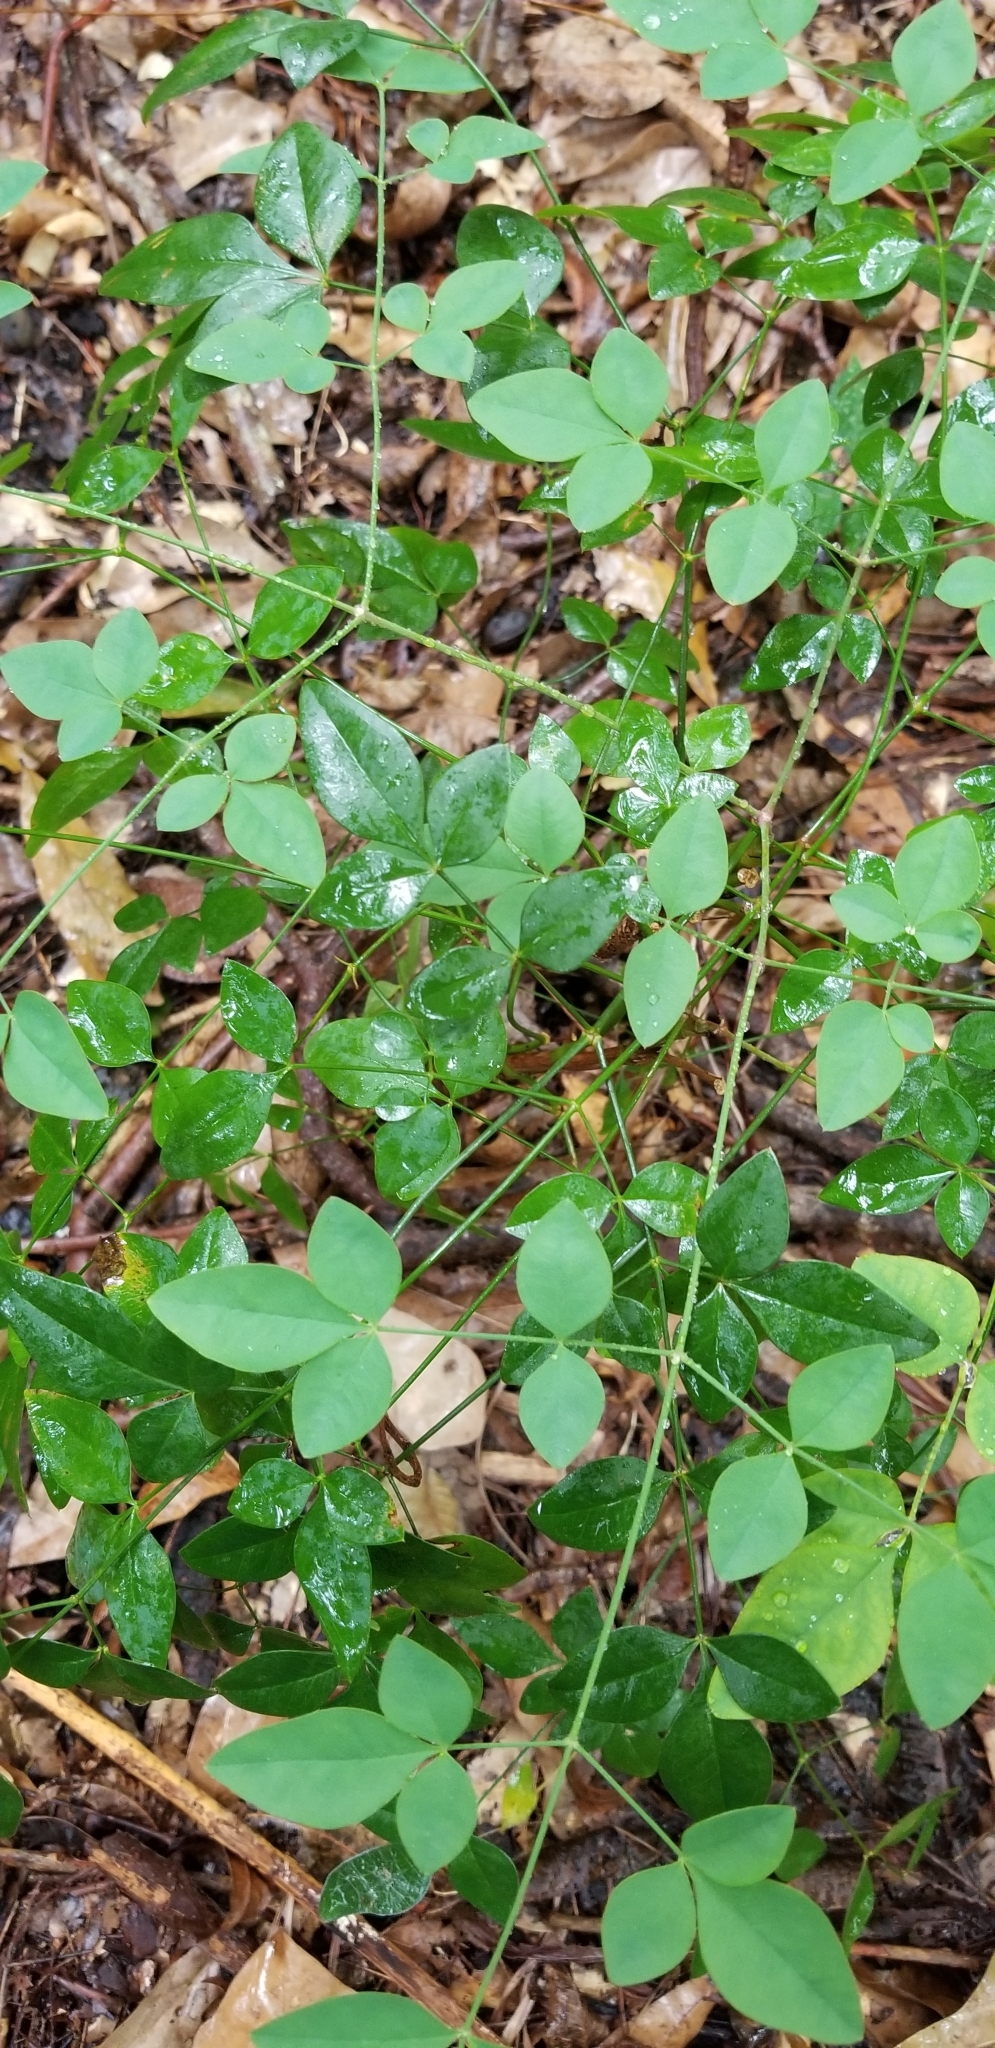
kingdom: Plantae
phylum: Tracheophyta
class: Magnoliopsida
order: Ranunculales
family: Berberidaceae
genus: Nandina
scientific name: Nandina domestica
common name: Sacred bamboo
